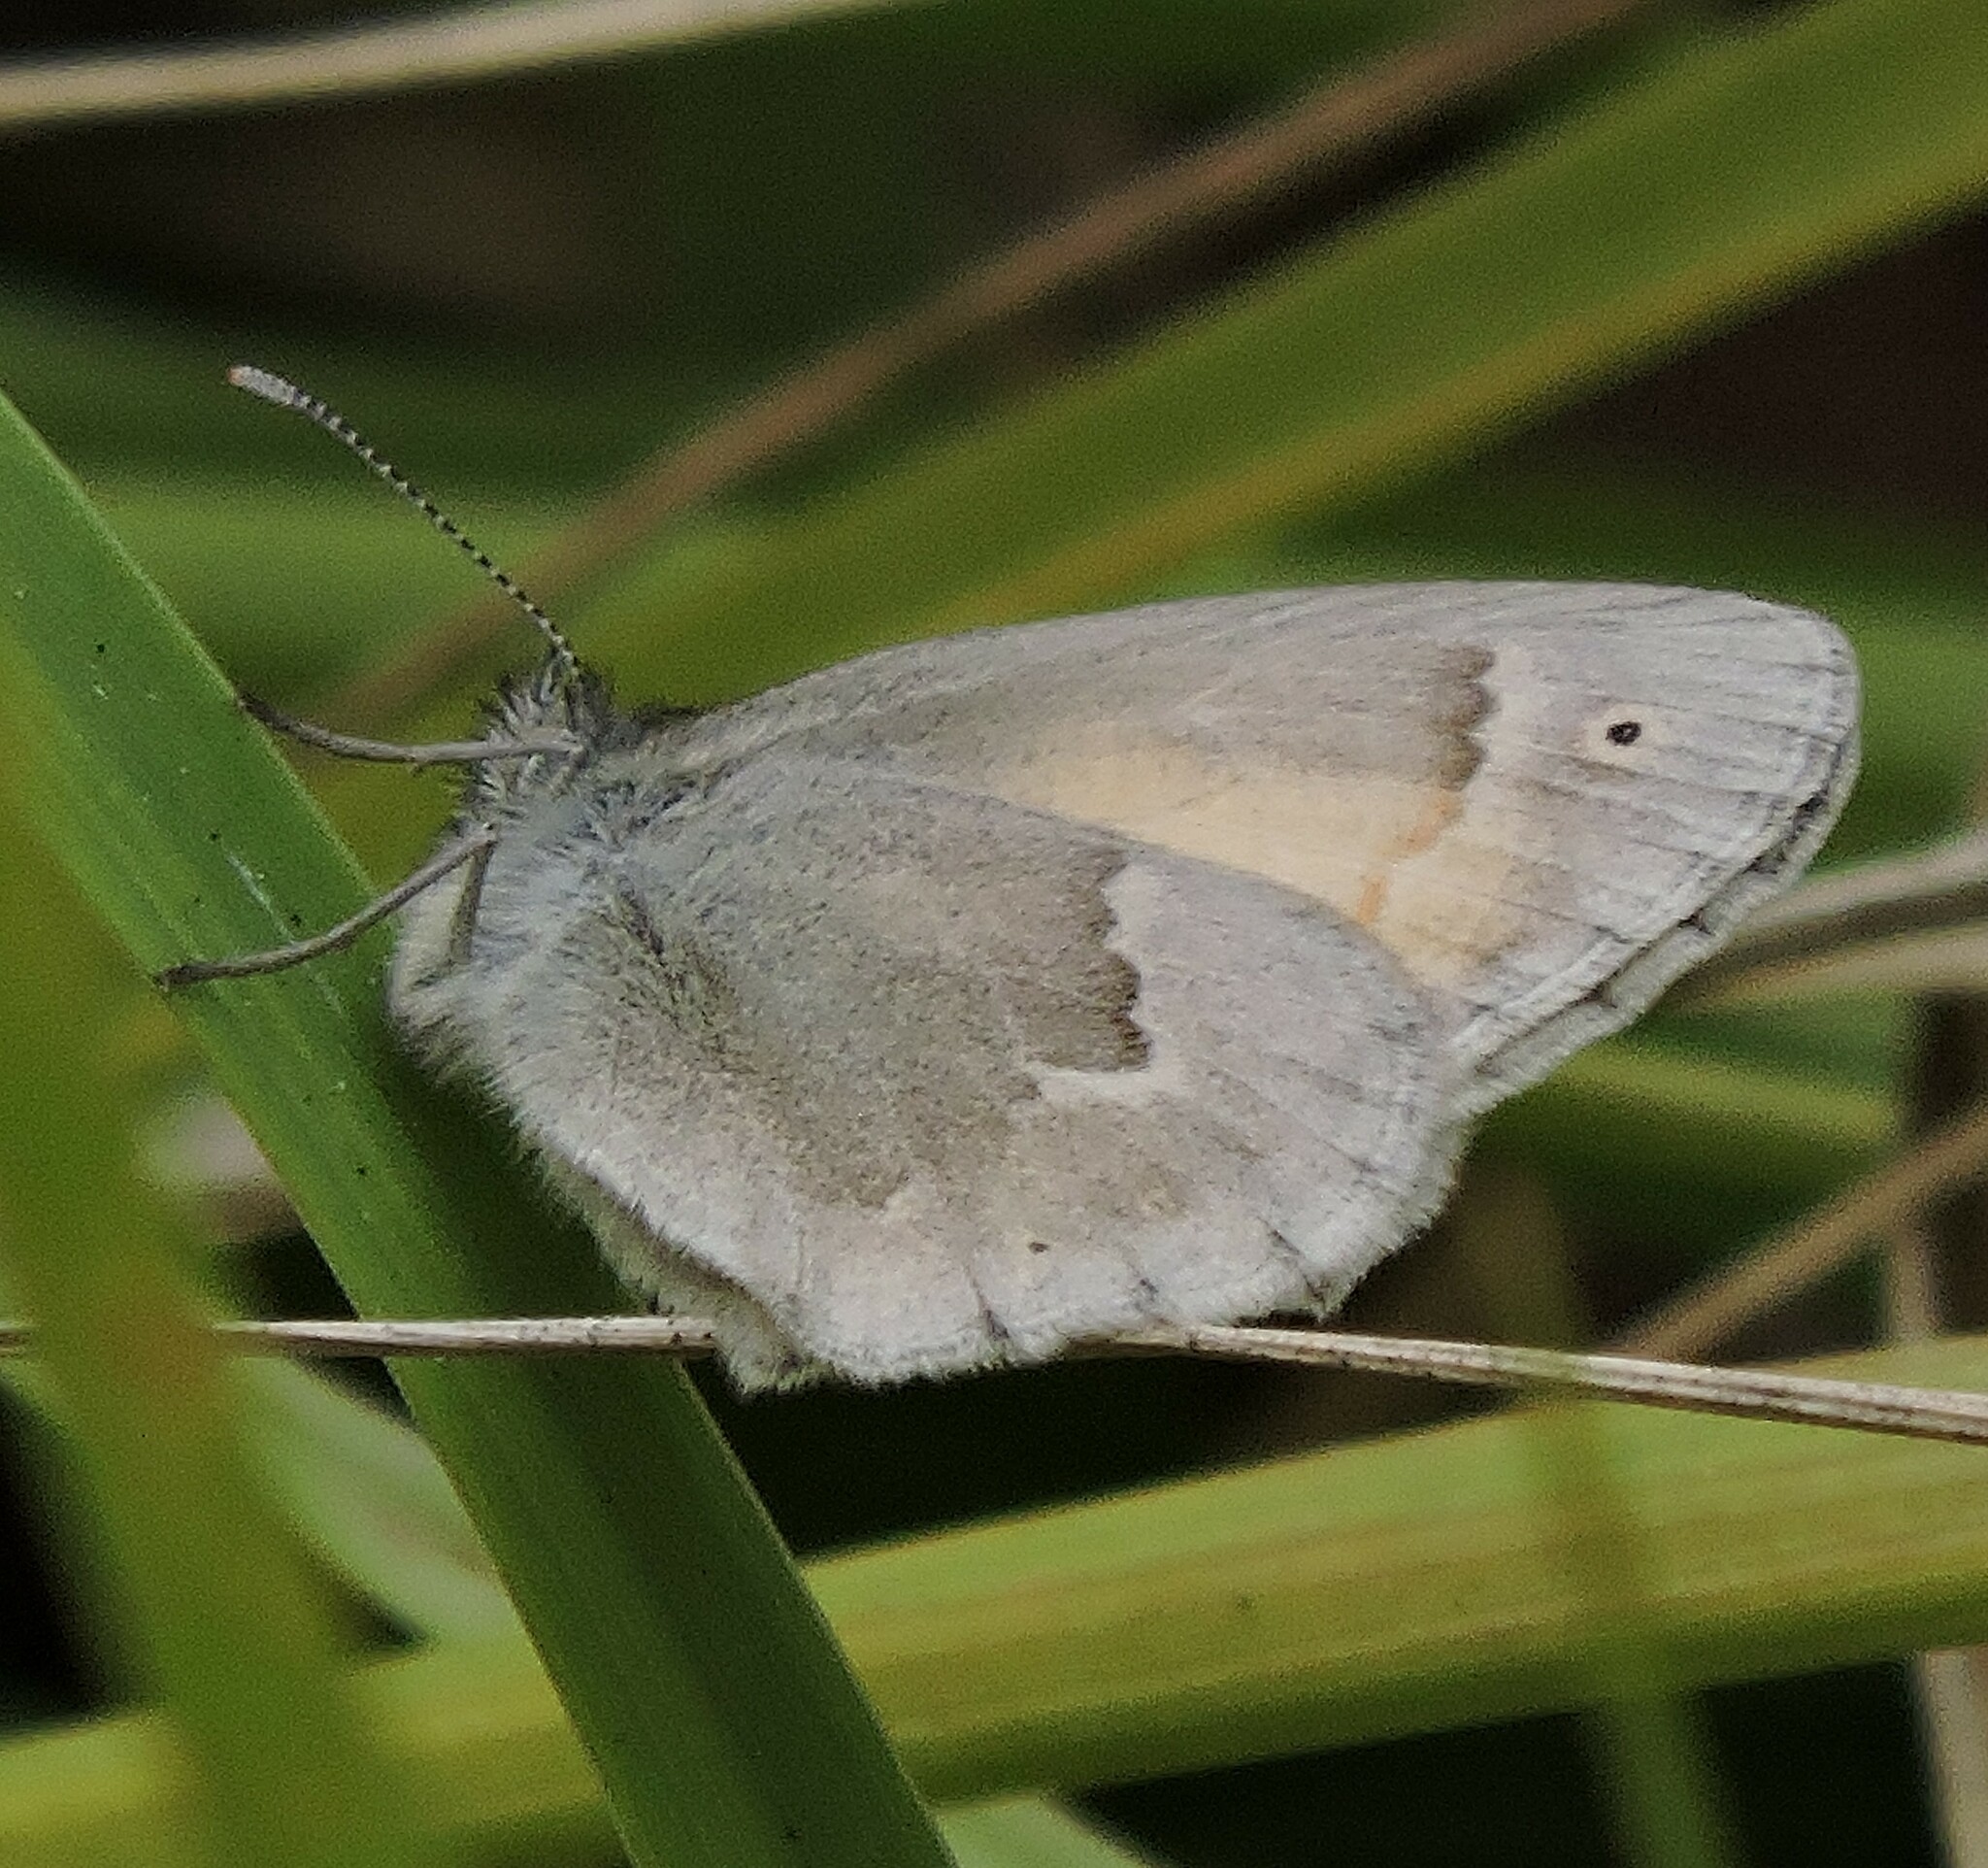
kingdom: Animalia
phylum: Arthropoda
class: Insecta
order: Lepidoptera
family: Nymphalidae
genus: Coenonympha
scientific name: Coenonympha california
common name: Common ringlet
